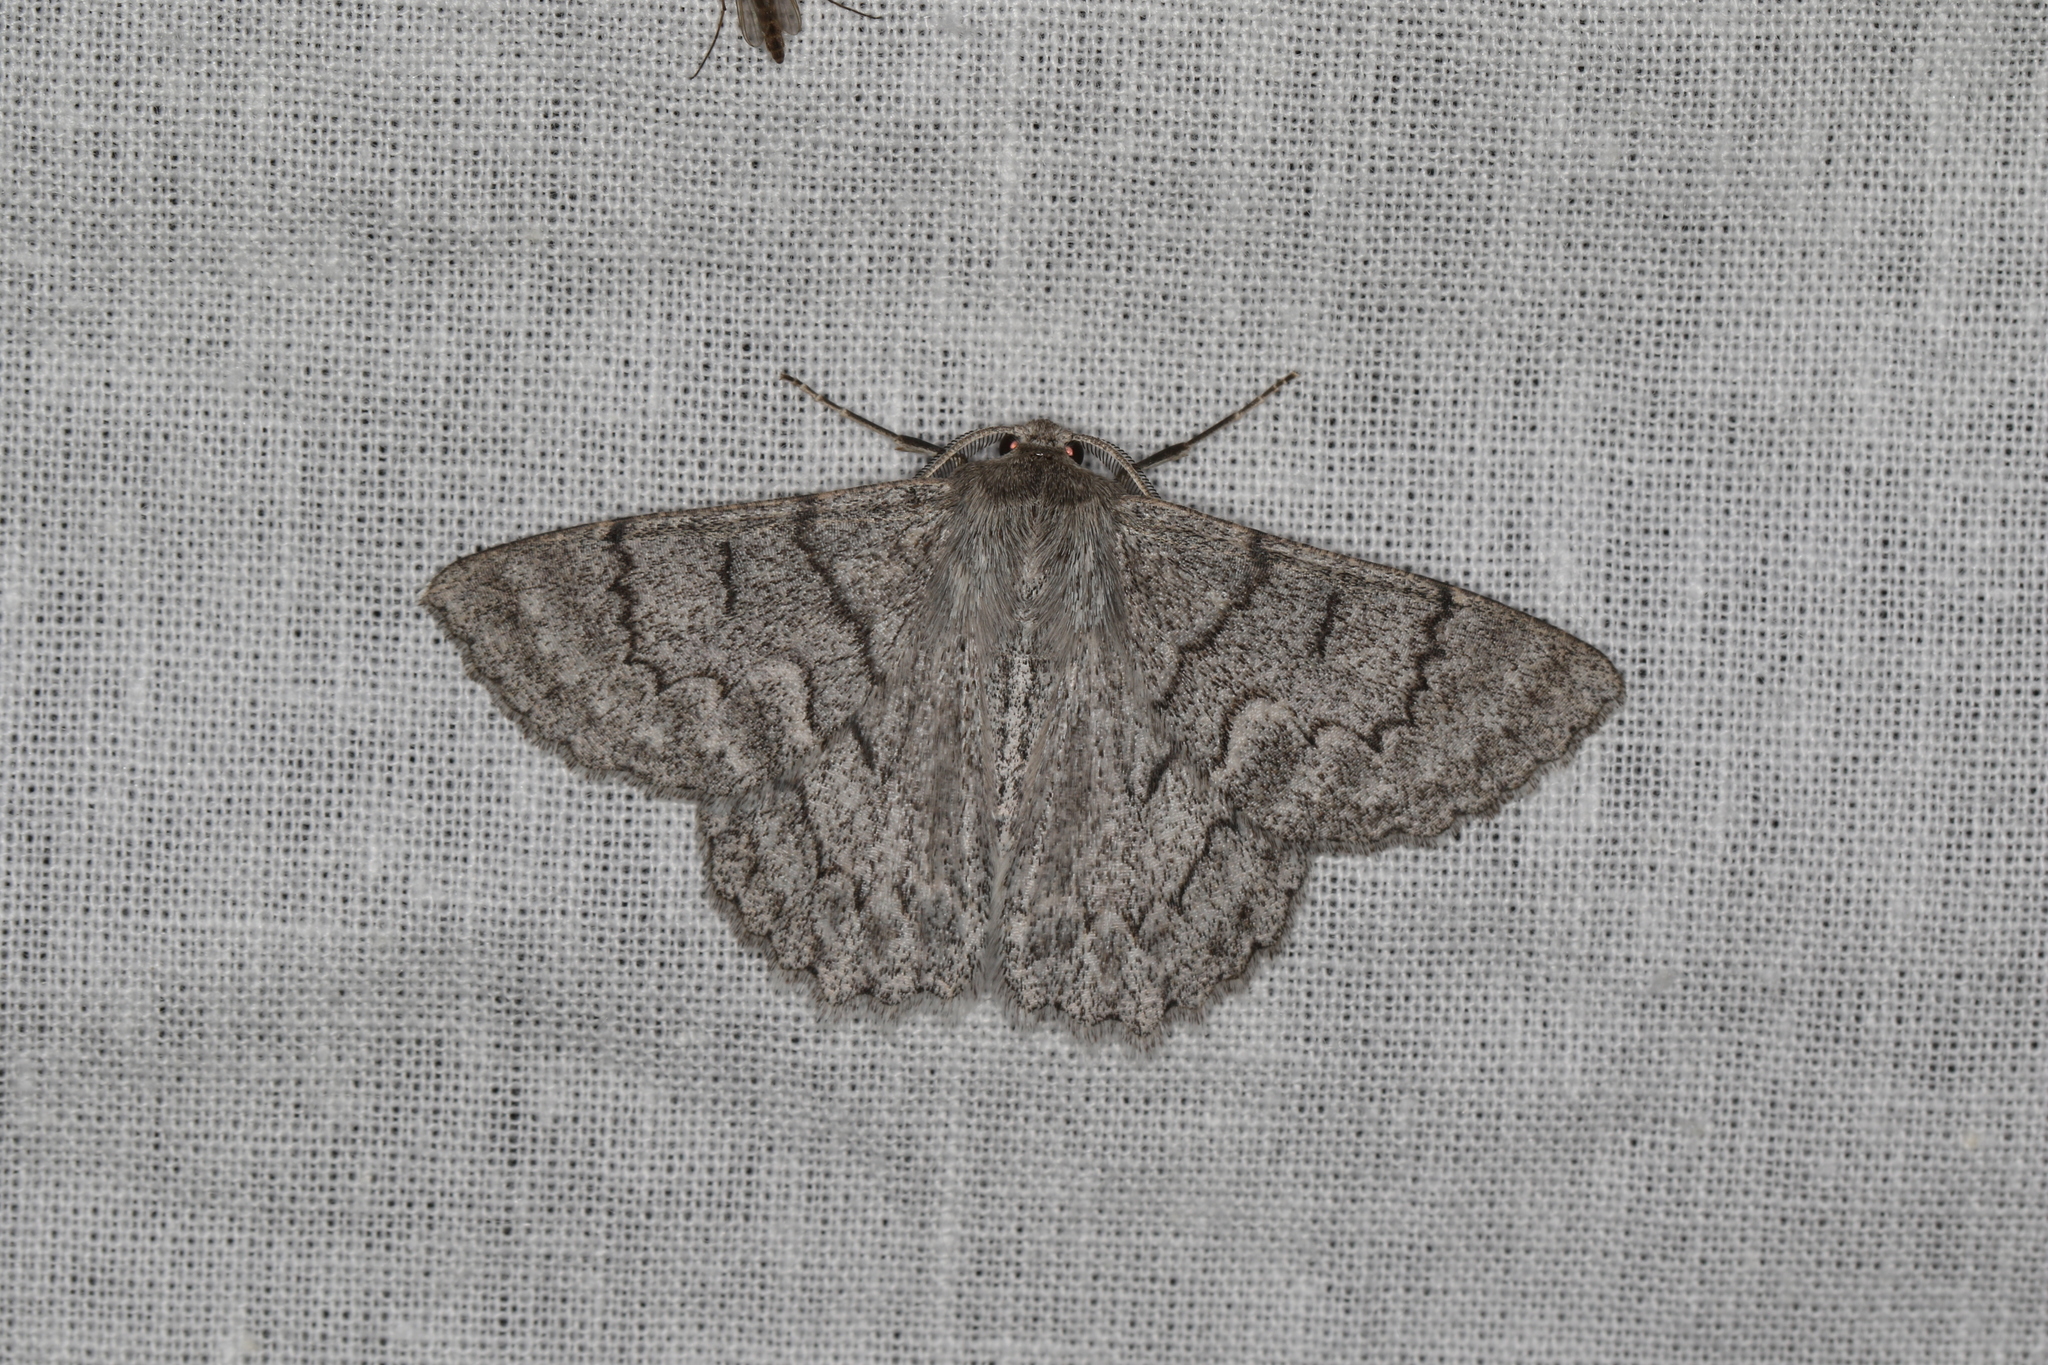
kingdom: Animalia
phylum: Arthropoda
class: Insecta
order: Lepidoptera
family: Geometridae
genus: Crypsiphona
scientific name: Crypsiphona ocultaria
